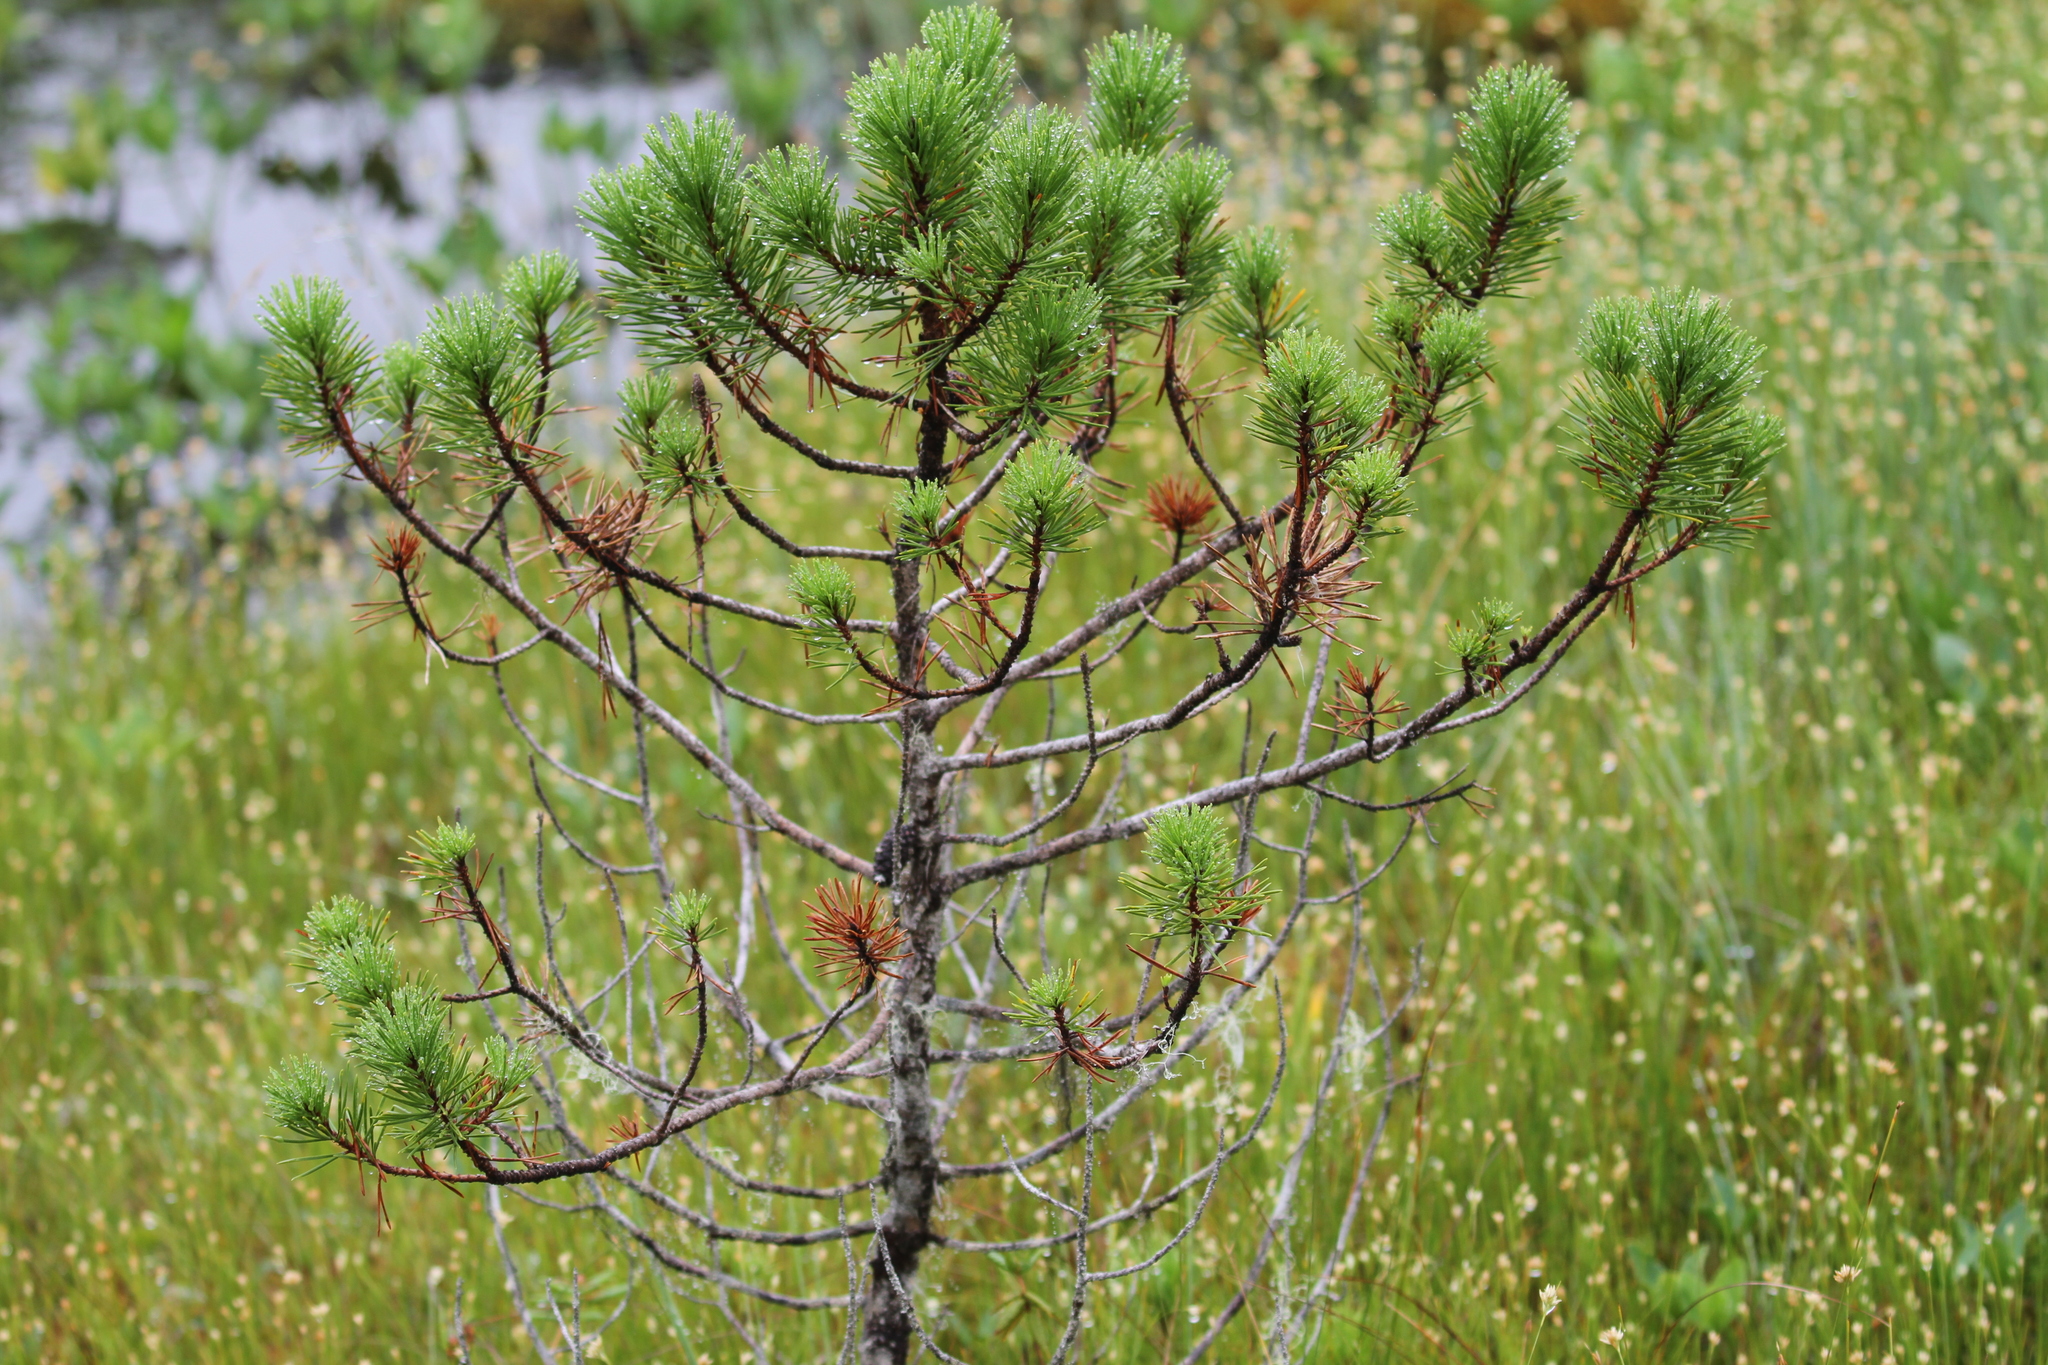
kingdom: Plantae
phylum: Tracheophyta
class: Pinopsida
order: Pinales
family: Pinaceae
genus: Pinus
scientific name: Pinus contorta
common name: Lodgepole pine
